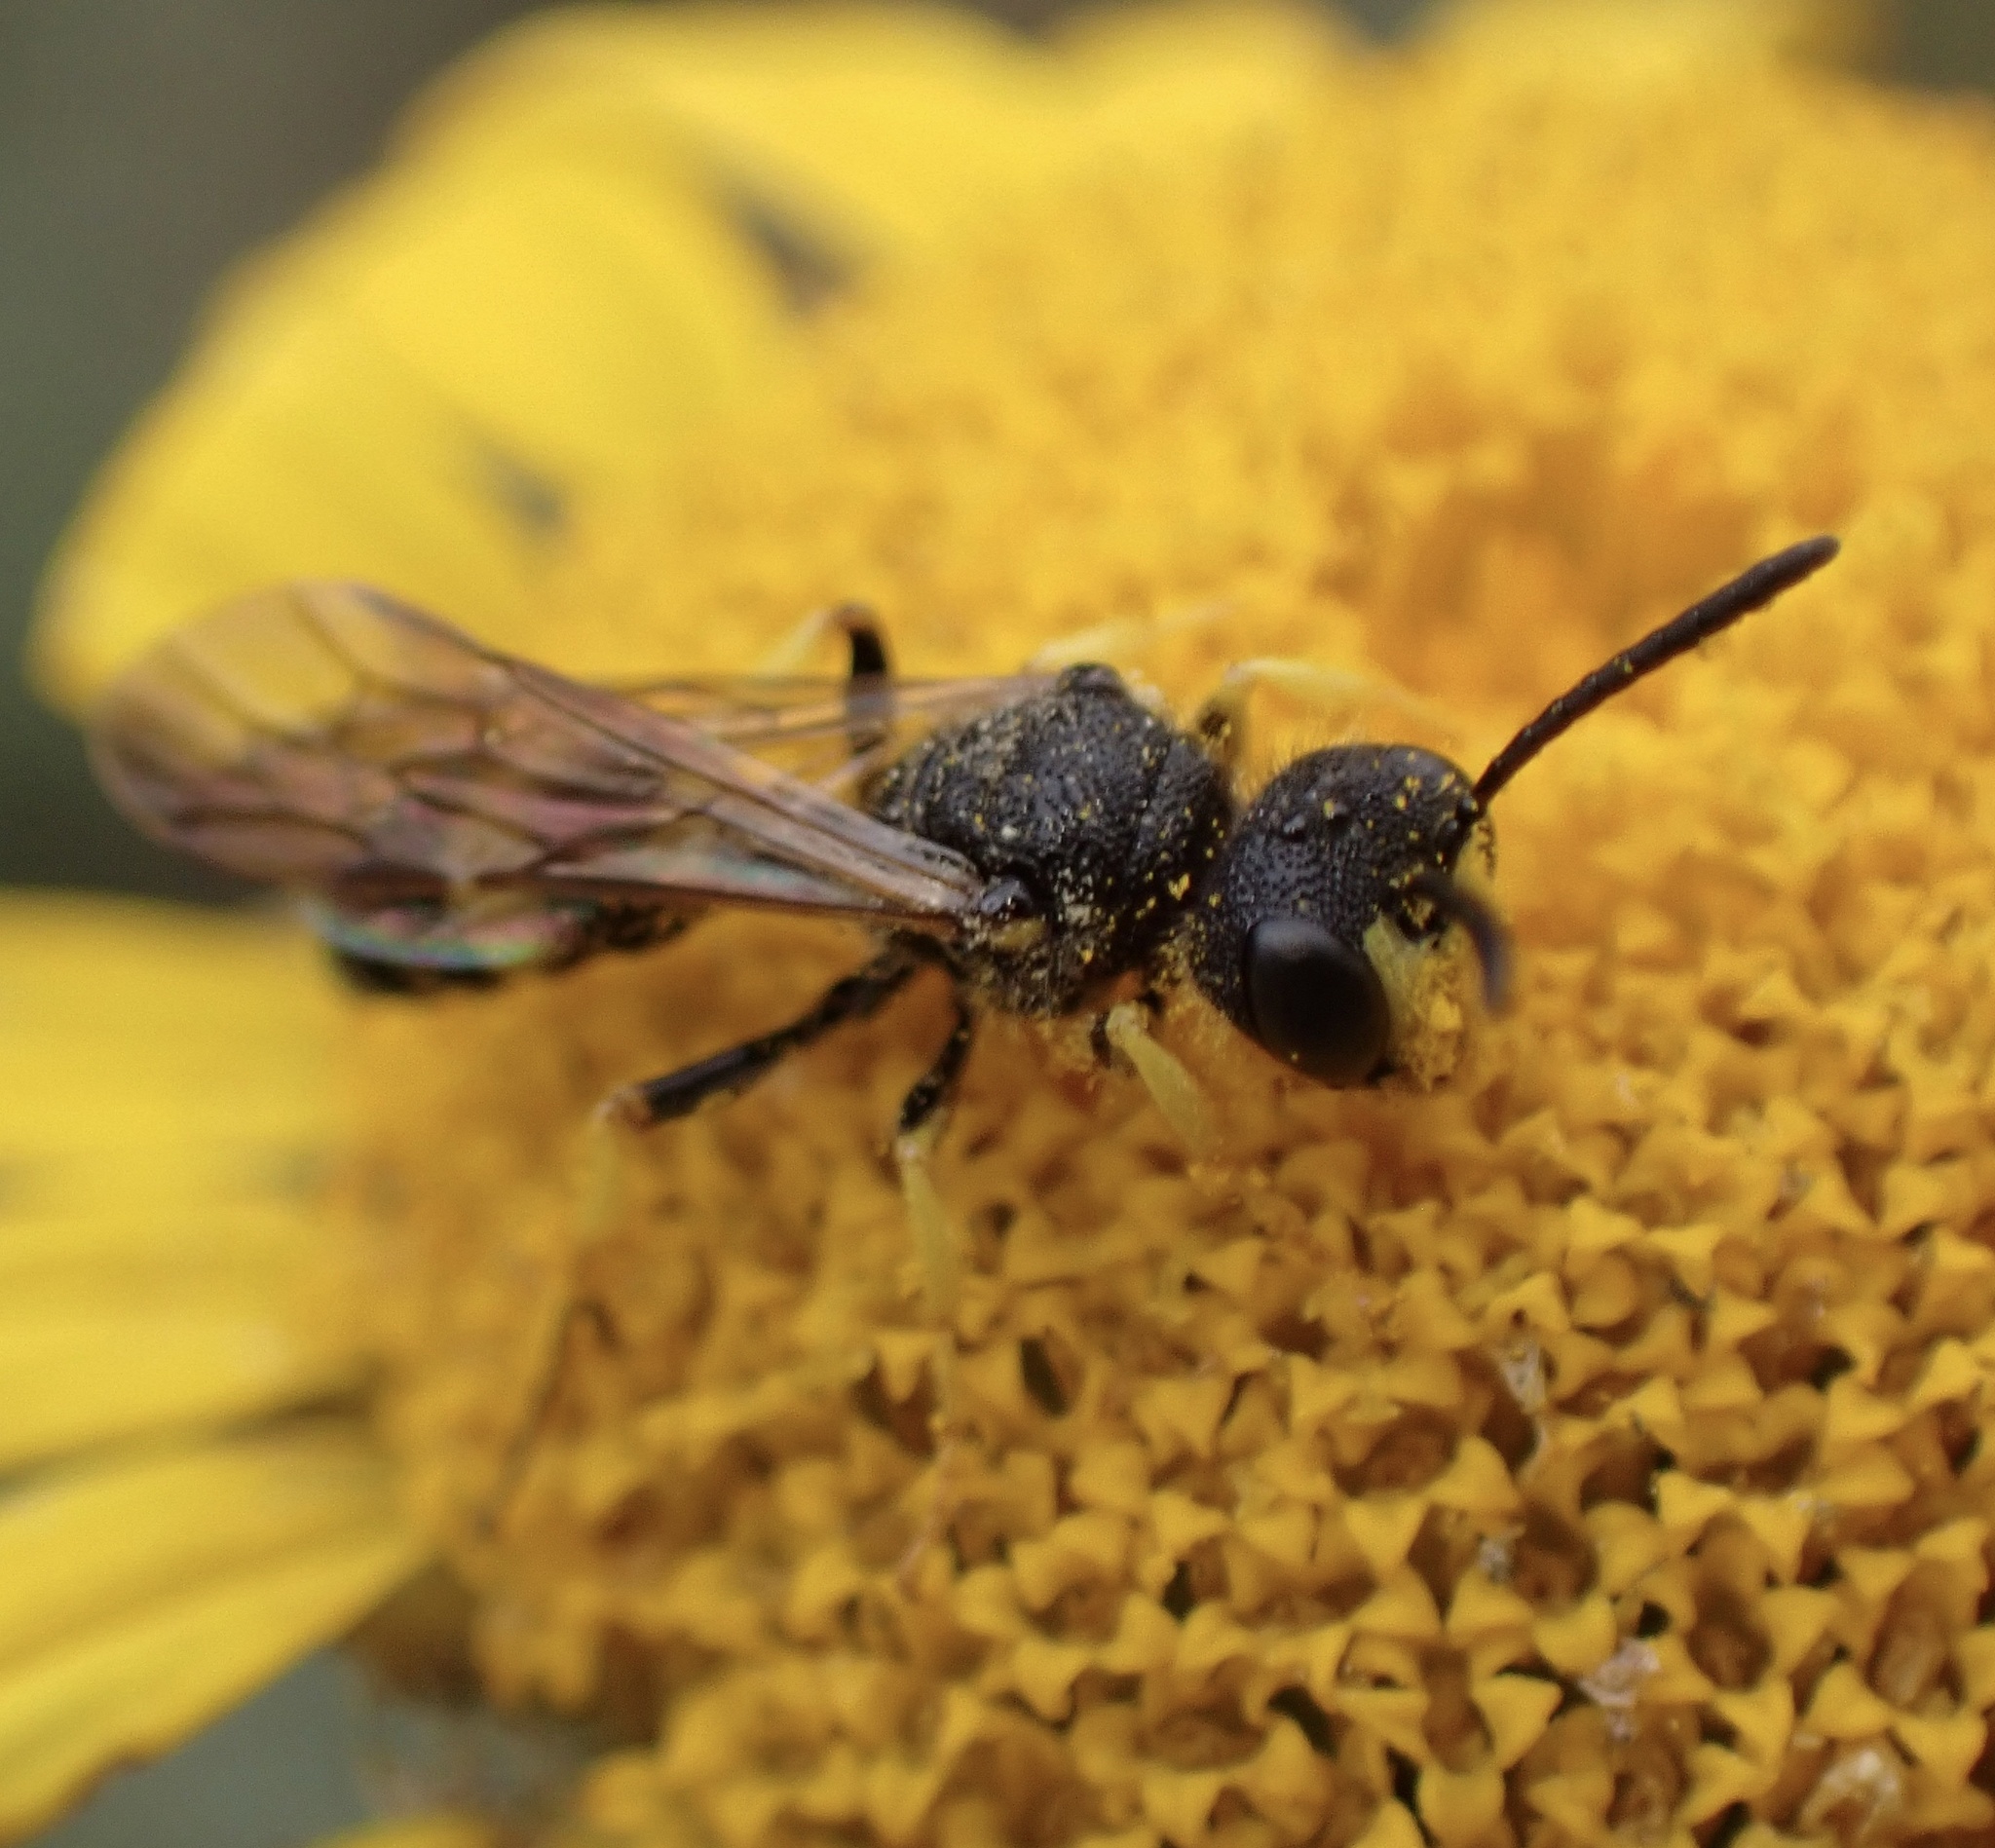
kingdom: Animalia
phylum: Arthropoda
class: Insecta
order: Hymenoptera
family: Crabronidae
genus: Cerceris
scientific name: Cerceris rybyensis
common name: Ornate tailed digger wasp
